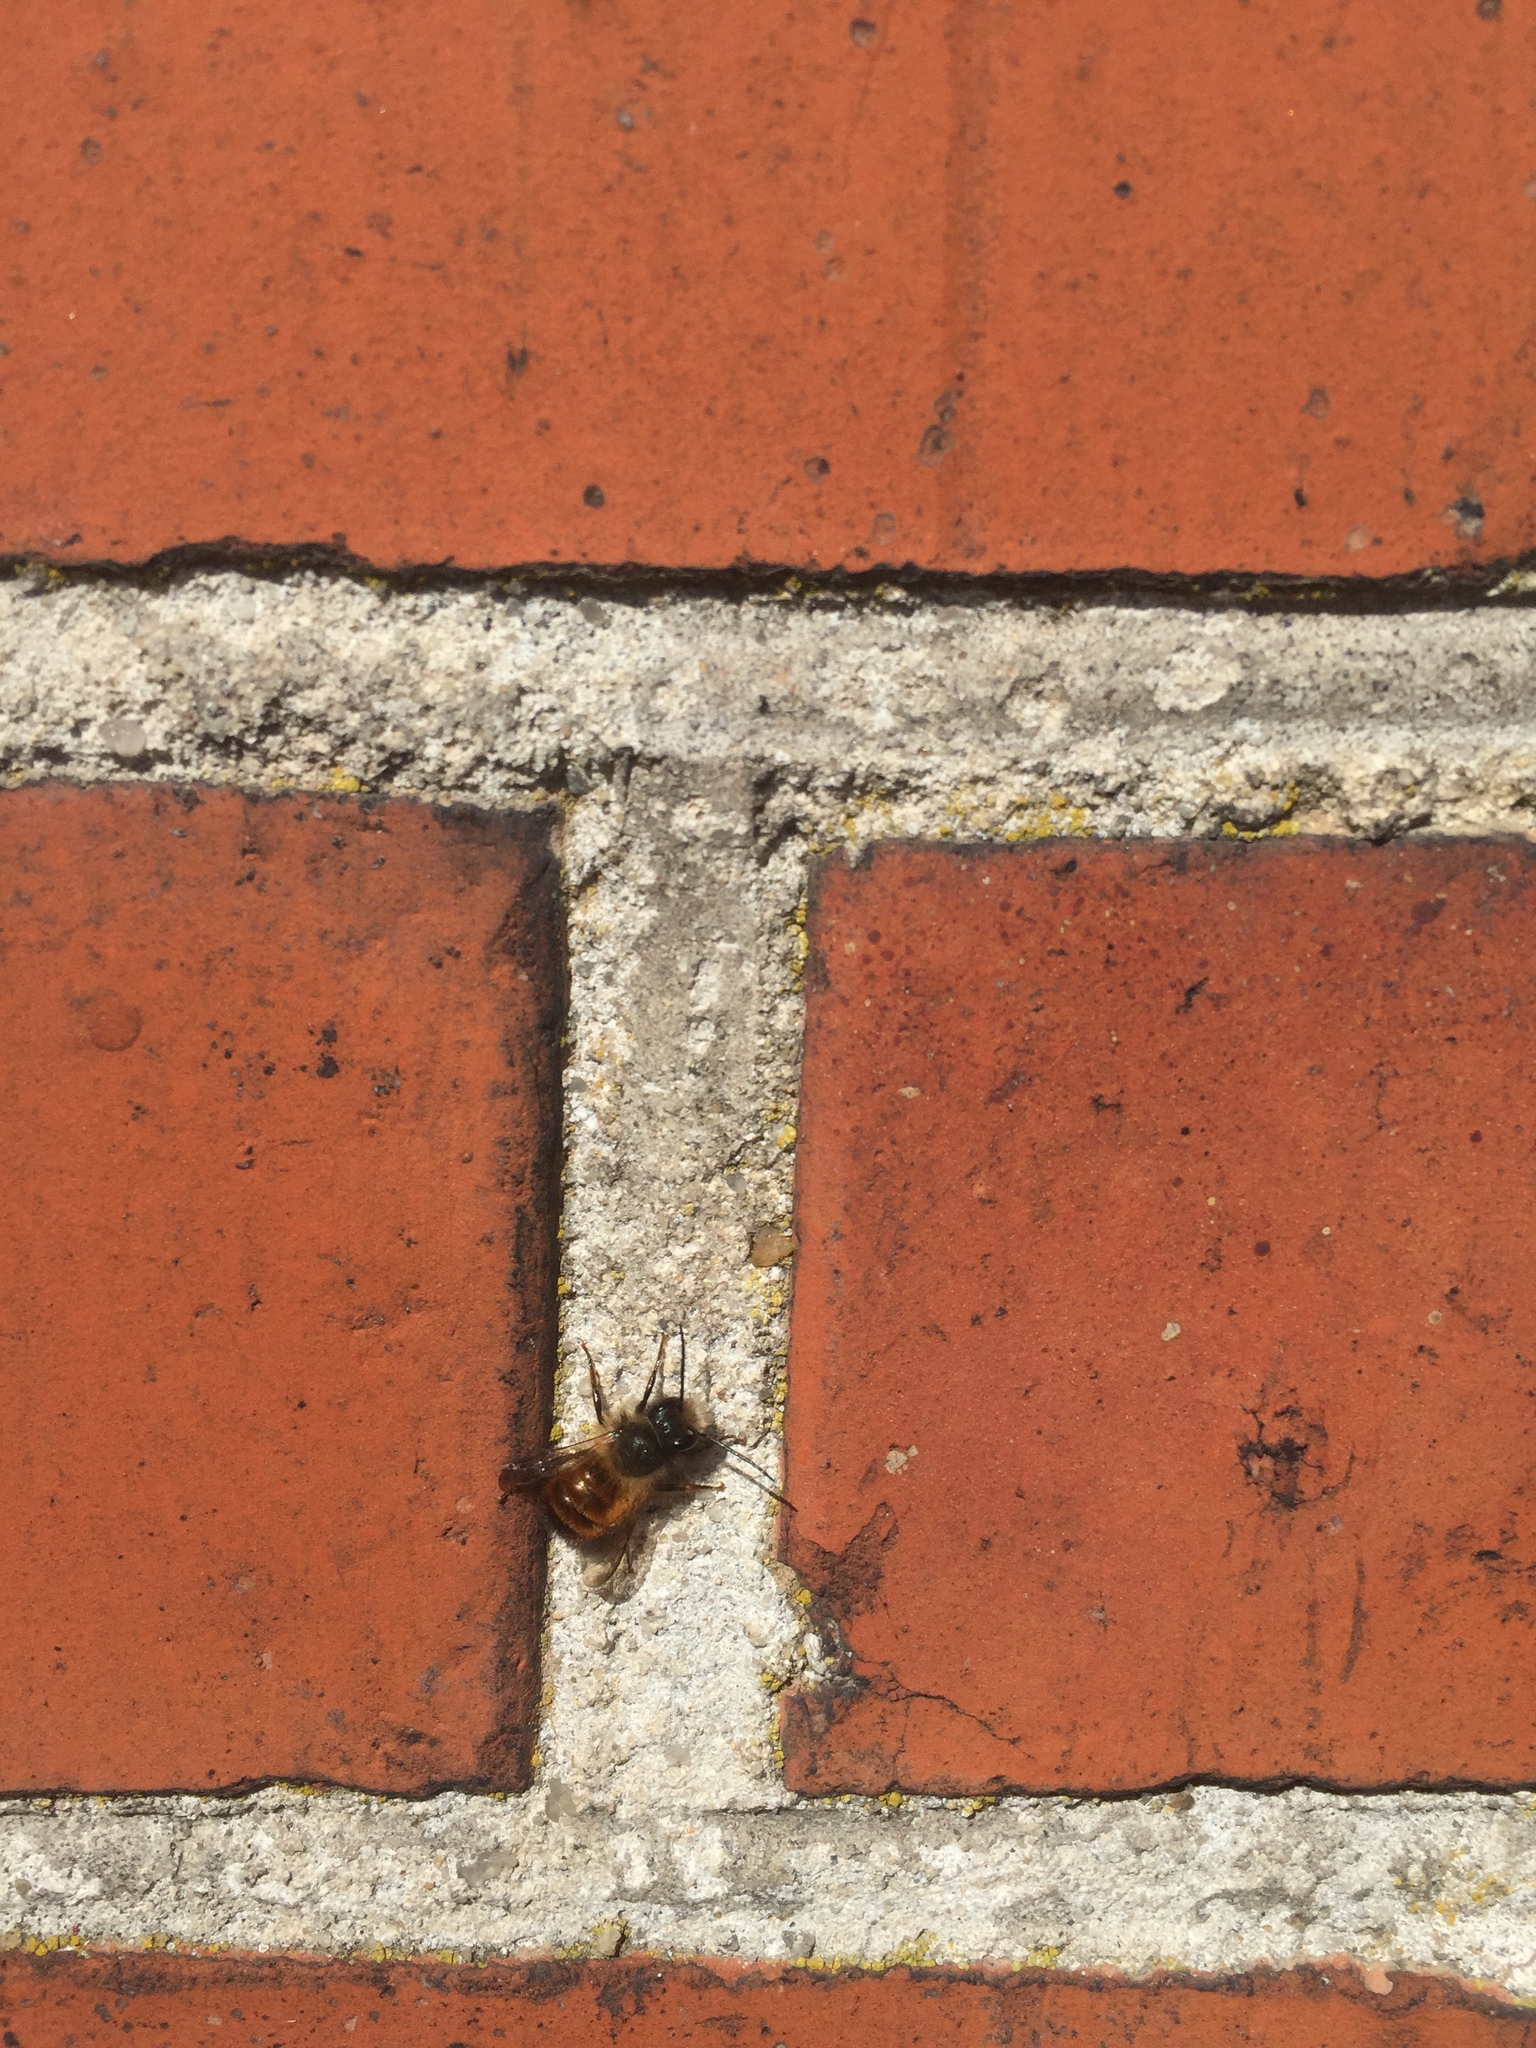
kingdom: Animalia
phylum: Arthropoda
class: Insecta
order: Hymenoptera
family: Megachilidae
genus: Osmia
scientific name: Osmia bicornis
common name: Red mason bee
